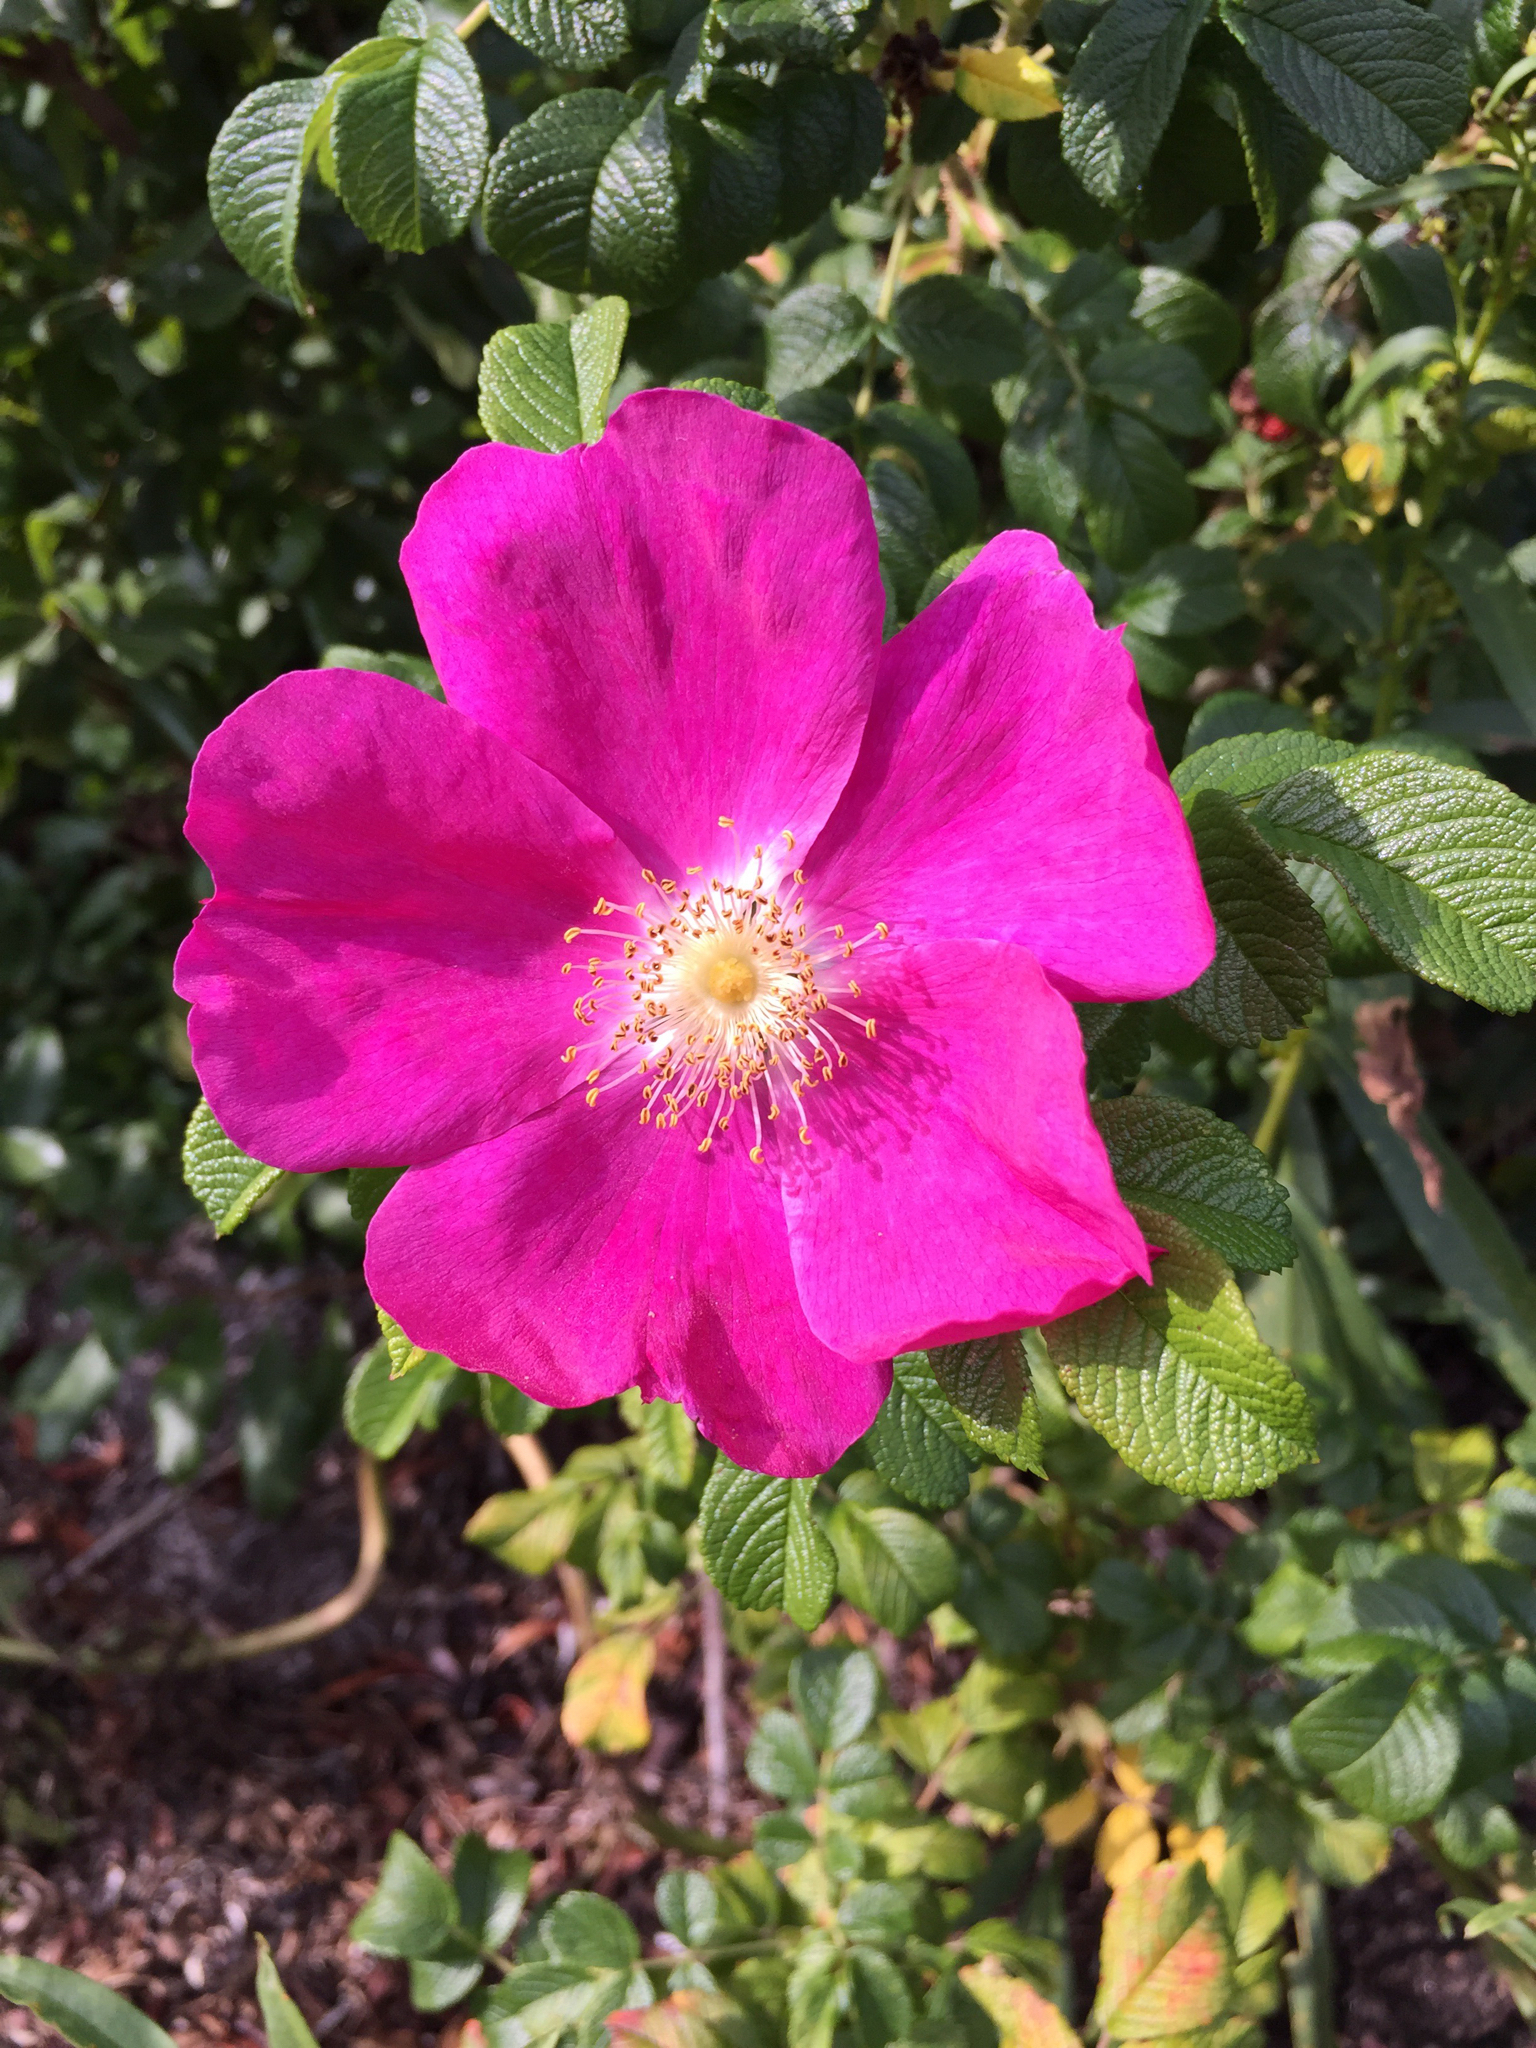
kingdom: Plantae
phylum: Tracheophyta
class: Magnoliopsida
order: Rosales
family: Rosaceae
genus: Rosa
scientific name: Rosa rugosa
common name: Japanese rose
